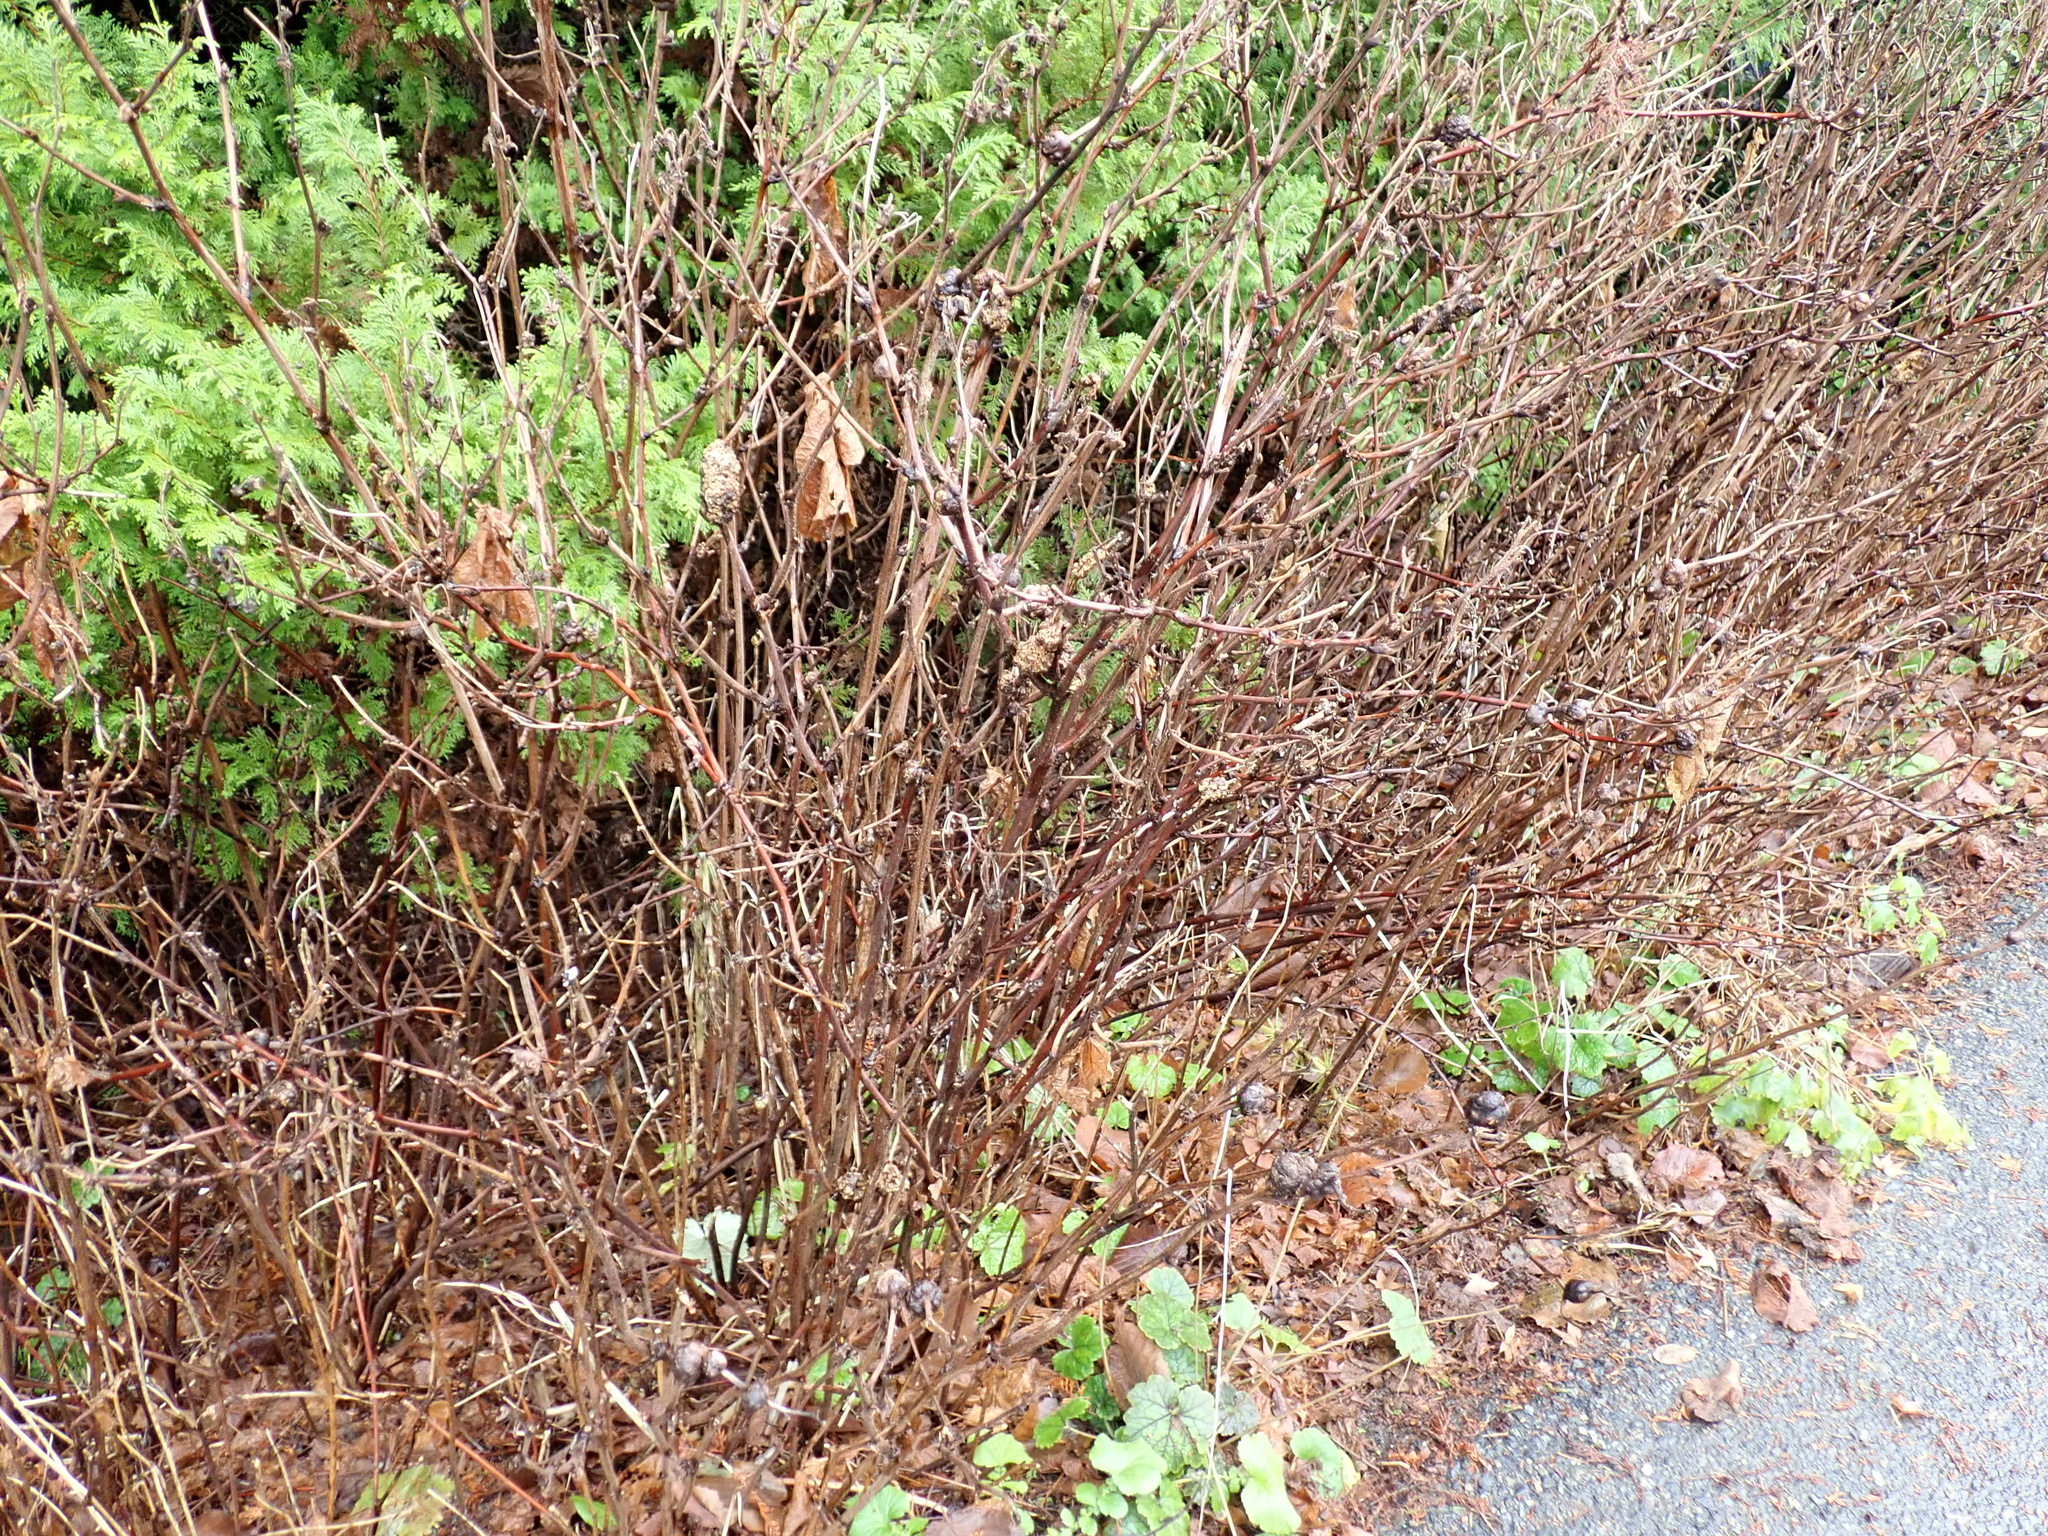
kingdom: Animalia
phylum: Arthropoda
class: Insecta
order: Hymenoptera
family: Cynipidae
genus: Diastrophus
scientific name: Diastrophus
